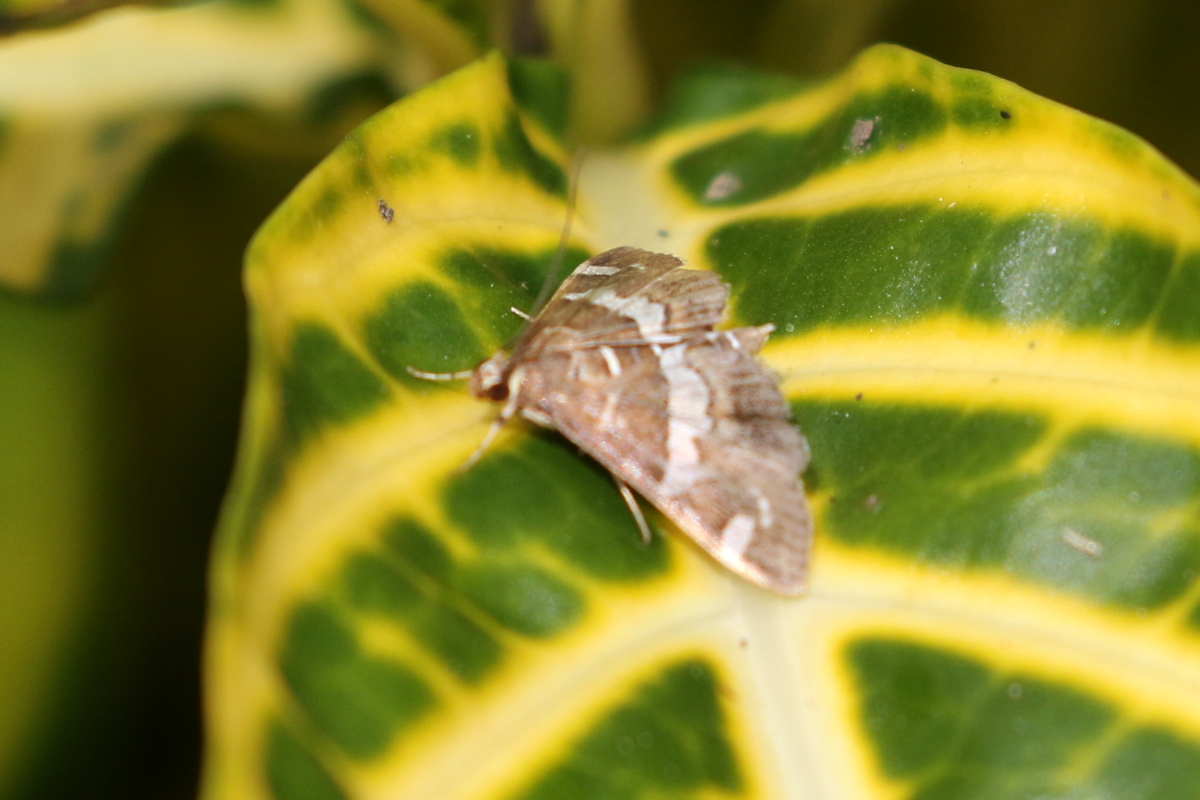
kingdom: Animalia
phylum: Arthropoda
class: Insecta
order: Lepidoptera
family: Crambidae
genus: Spoladea
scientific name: Spoladea recurvalis
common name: Beet webworm moth
